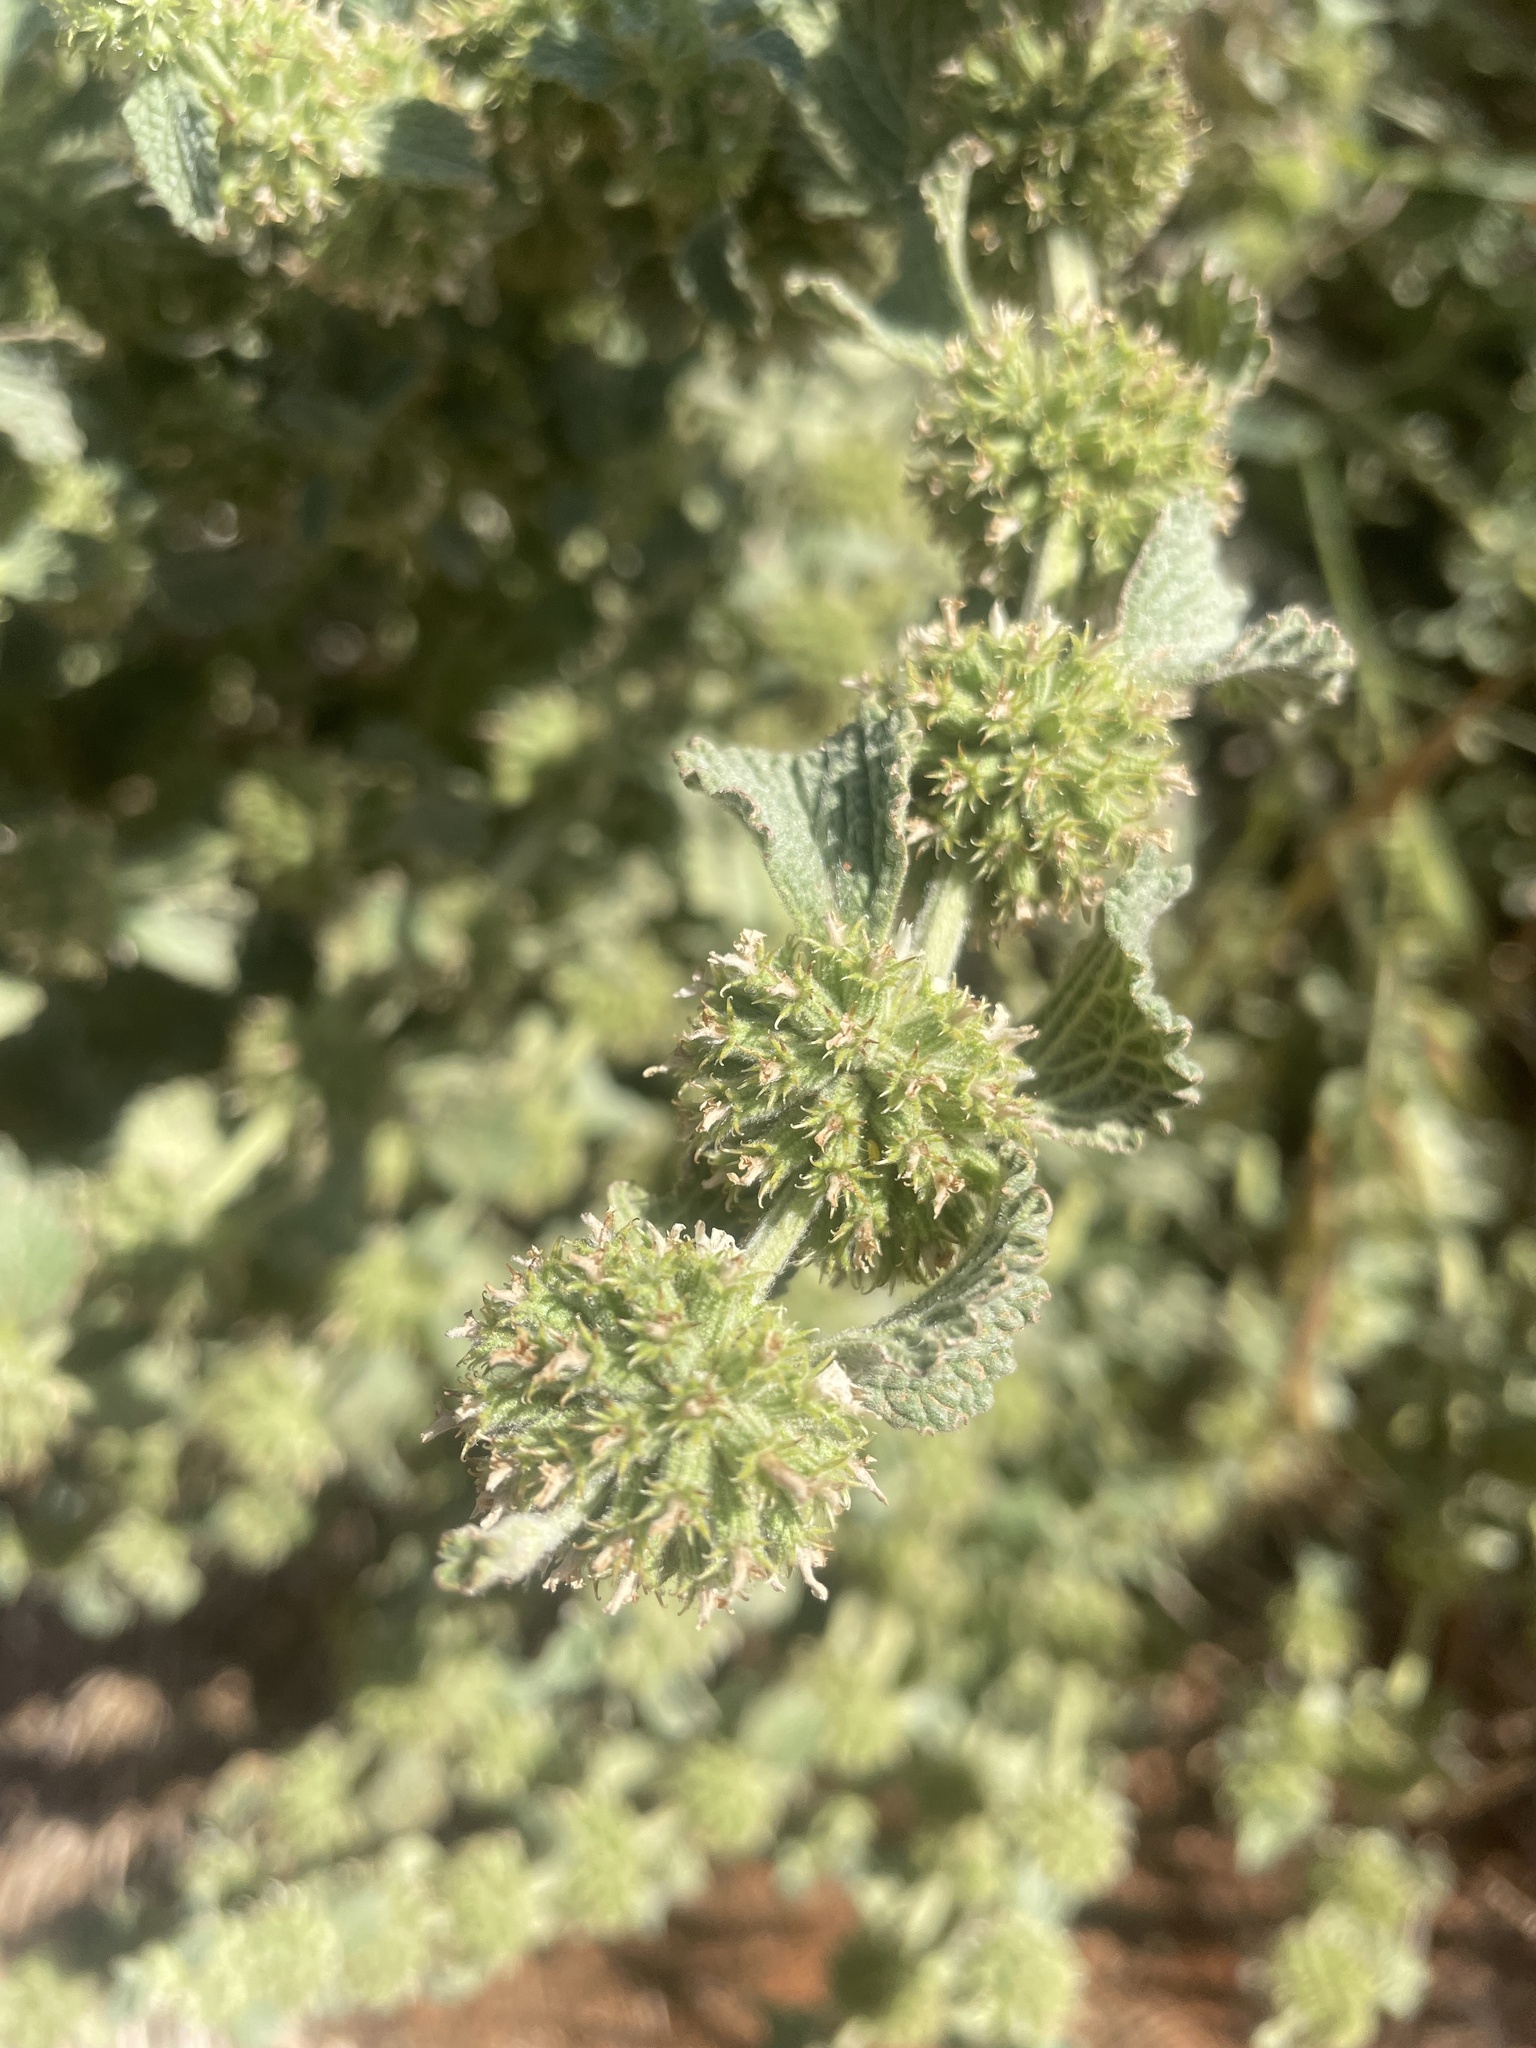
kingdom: Plantae
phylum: Tracheophyta
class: Magnoliopsida
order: Lamiales
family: Lamiaceae
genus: Marrubium
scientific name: Marrubium vulgare
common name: Horehound
